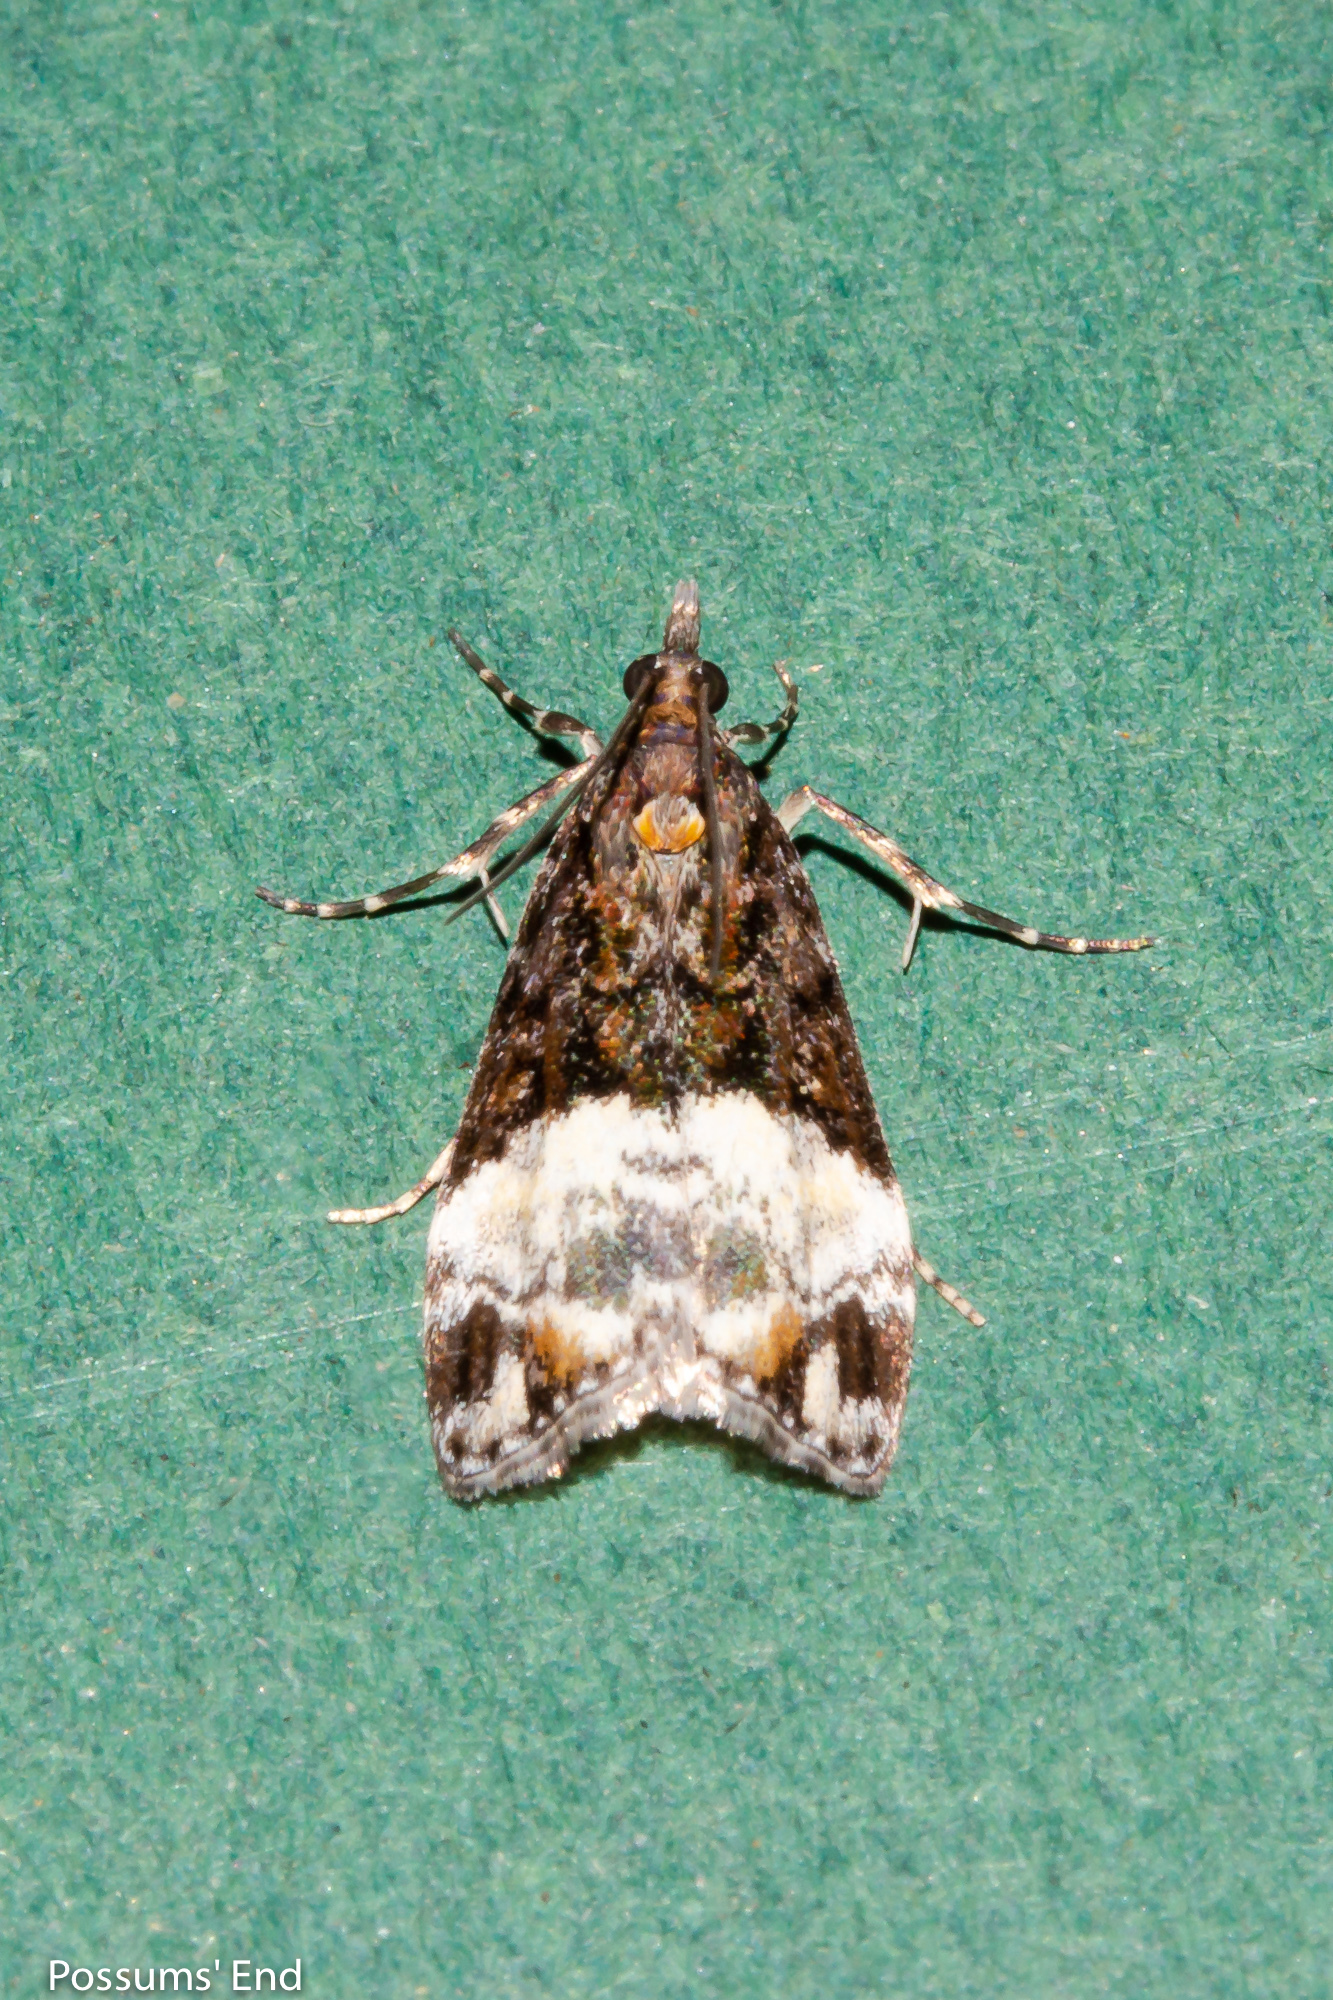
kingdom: Animalia
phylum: Arthropoda
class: Insecta
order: Lepidoptera
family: Crambidae
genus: Scoparia
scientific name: Scoparia minusculalis
